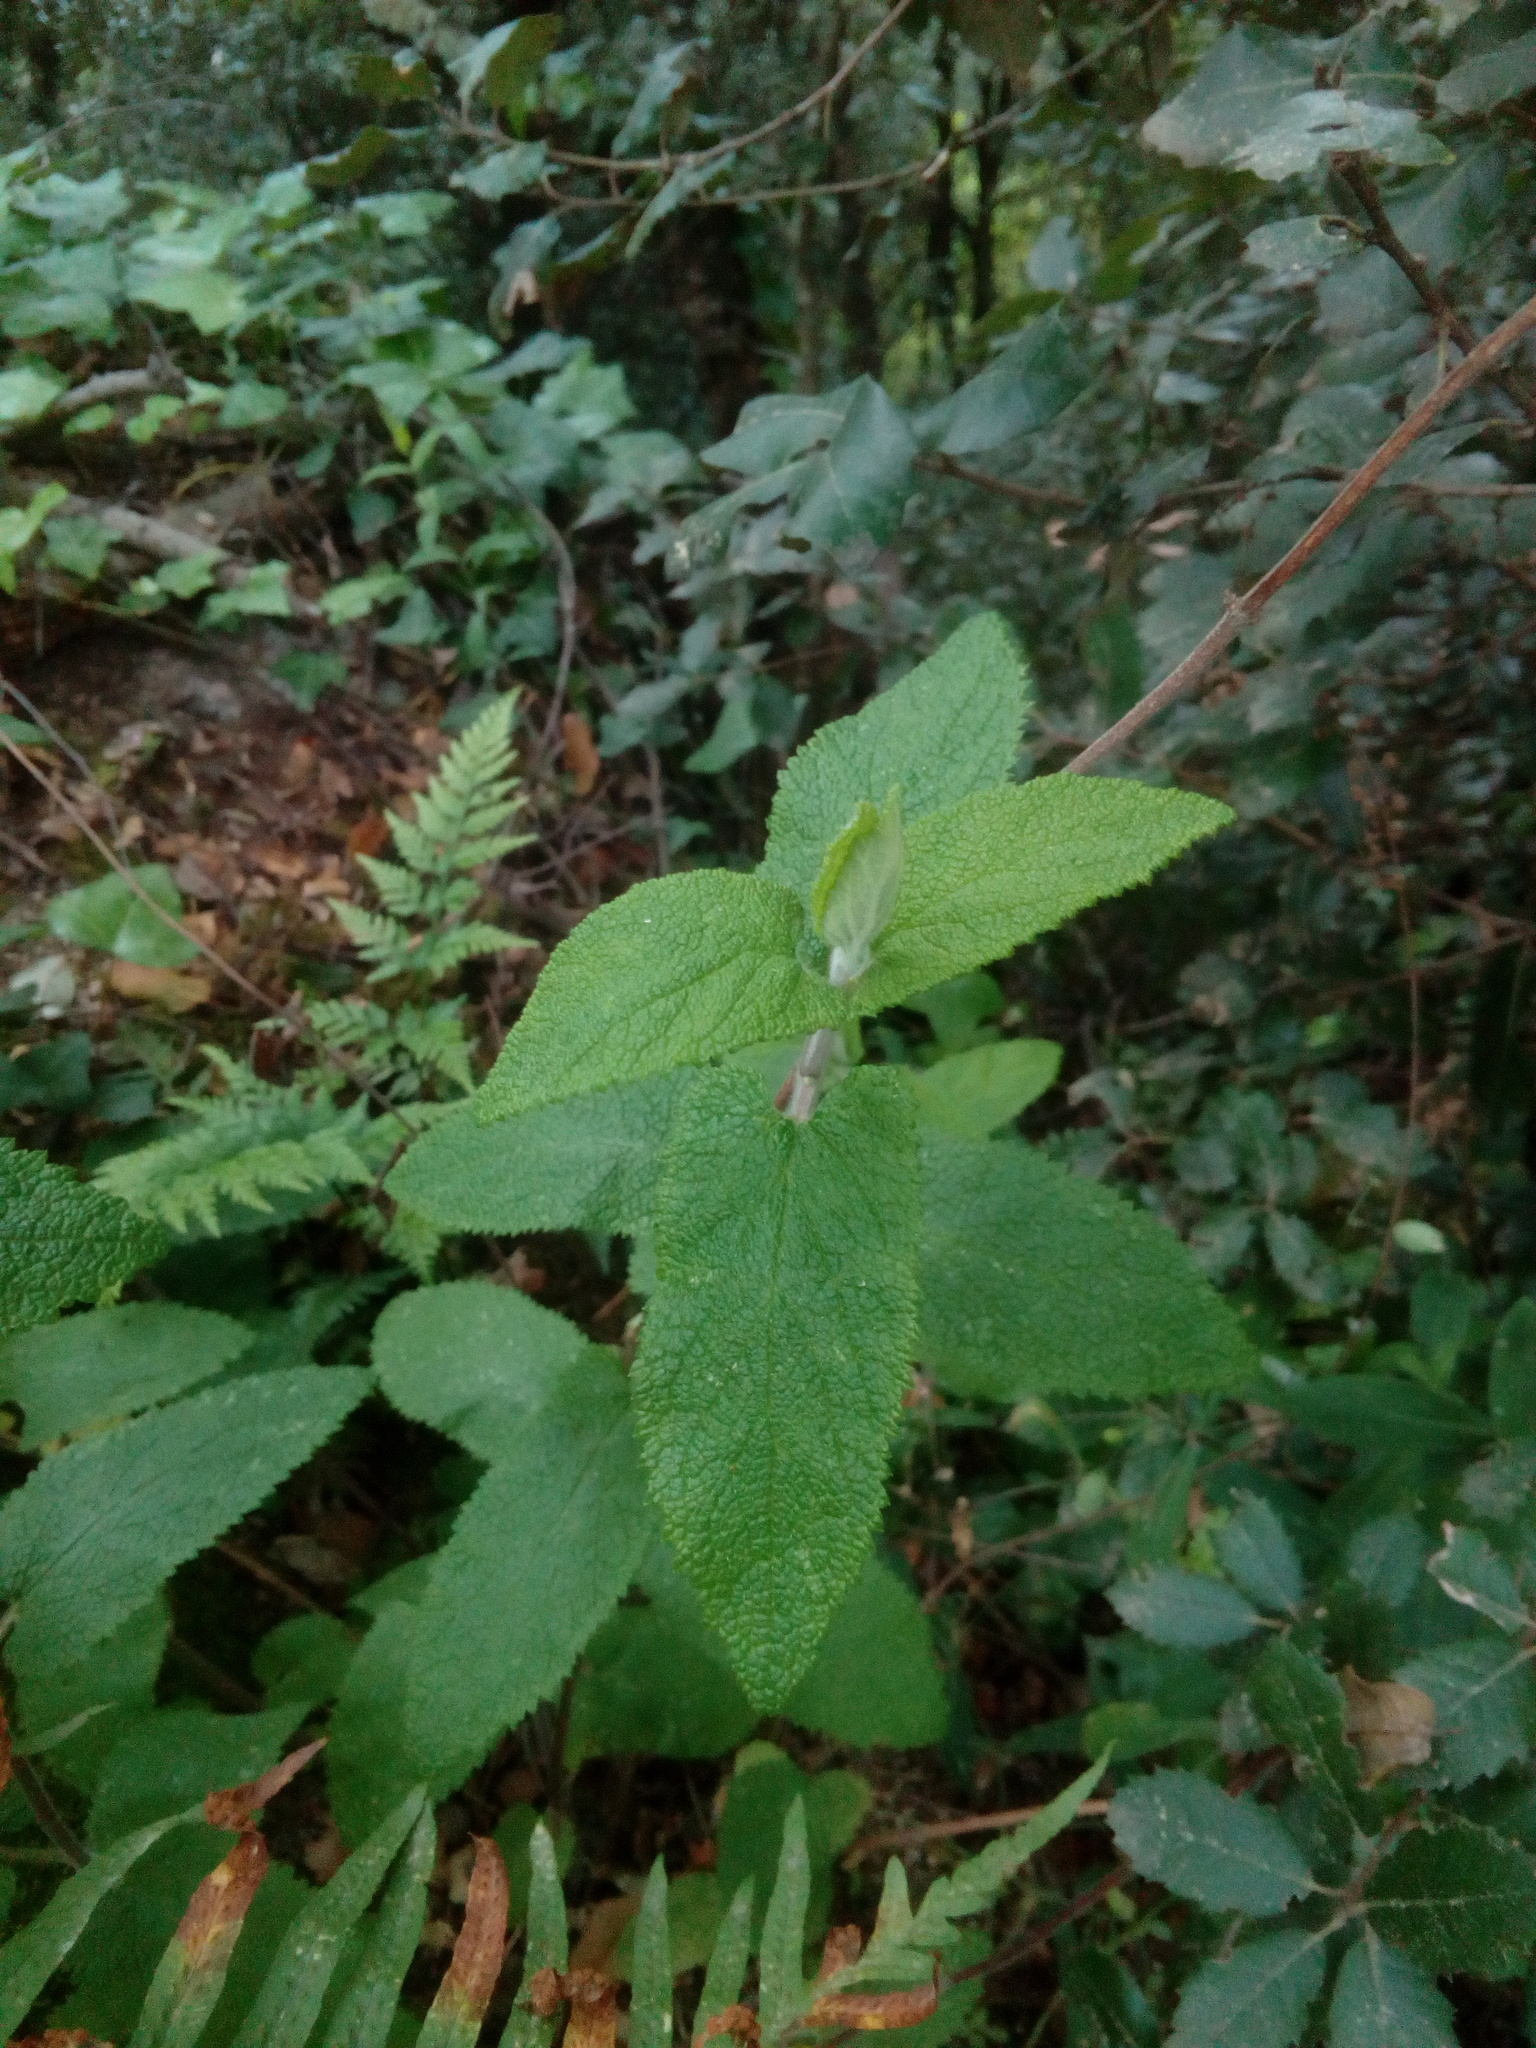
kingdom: Plantae
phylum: Tracheophyta
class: Magnoliopsida
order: Lamiales
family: Lamiaceae
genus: Teucrium
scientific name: Teucrium scorodonia
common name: Woodland germander
